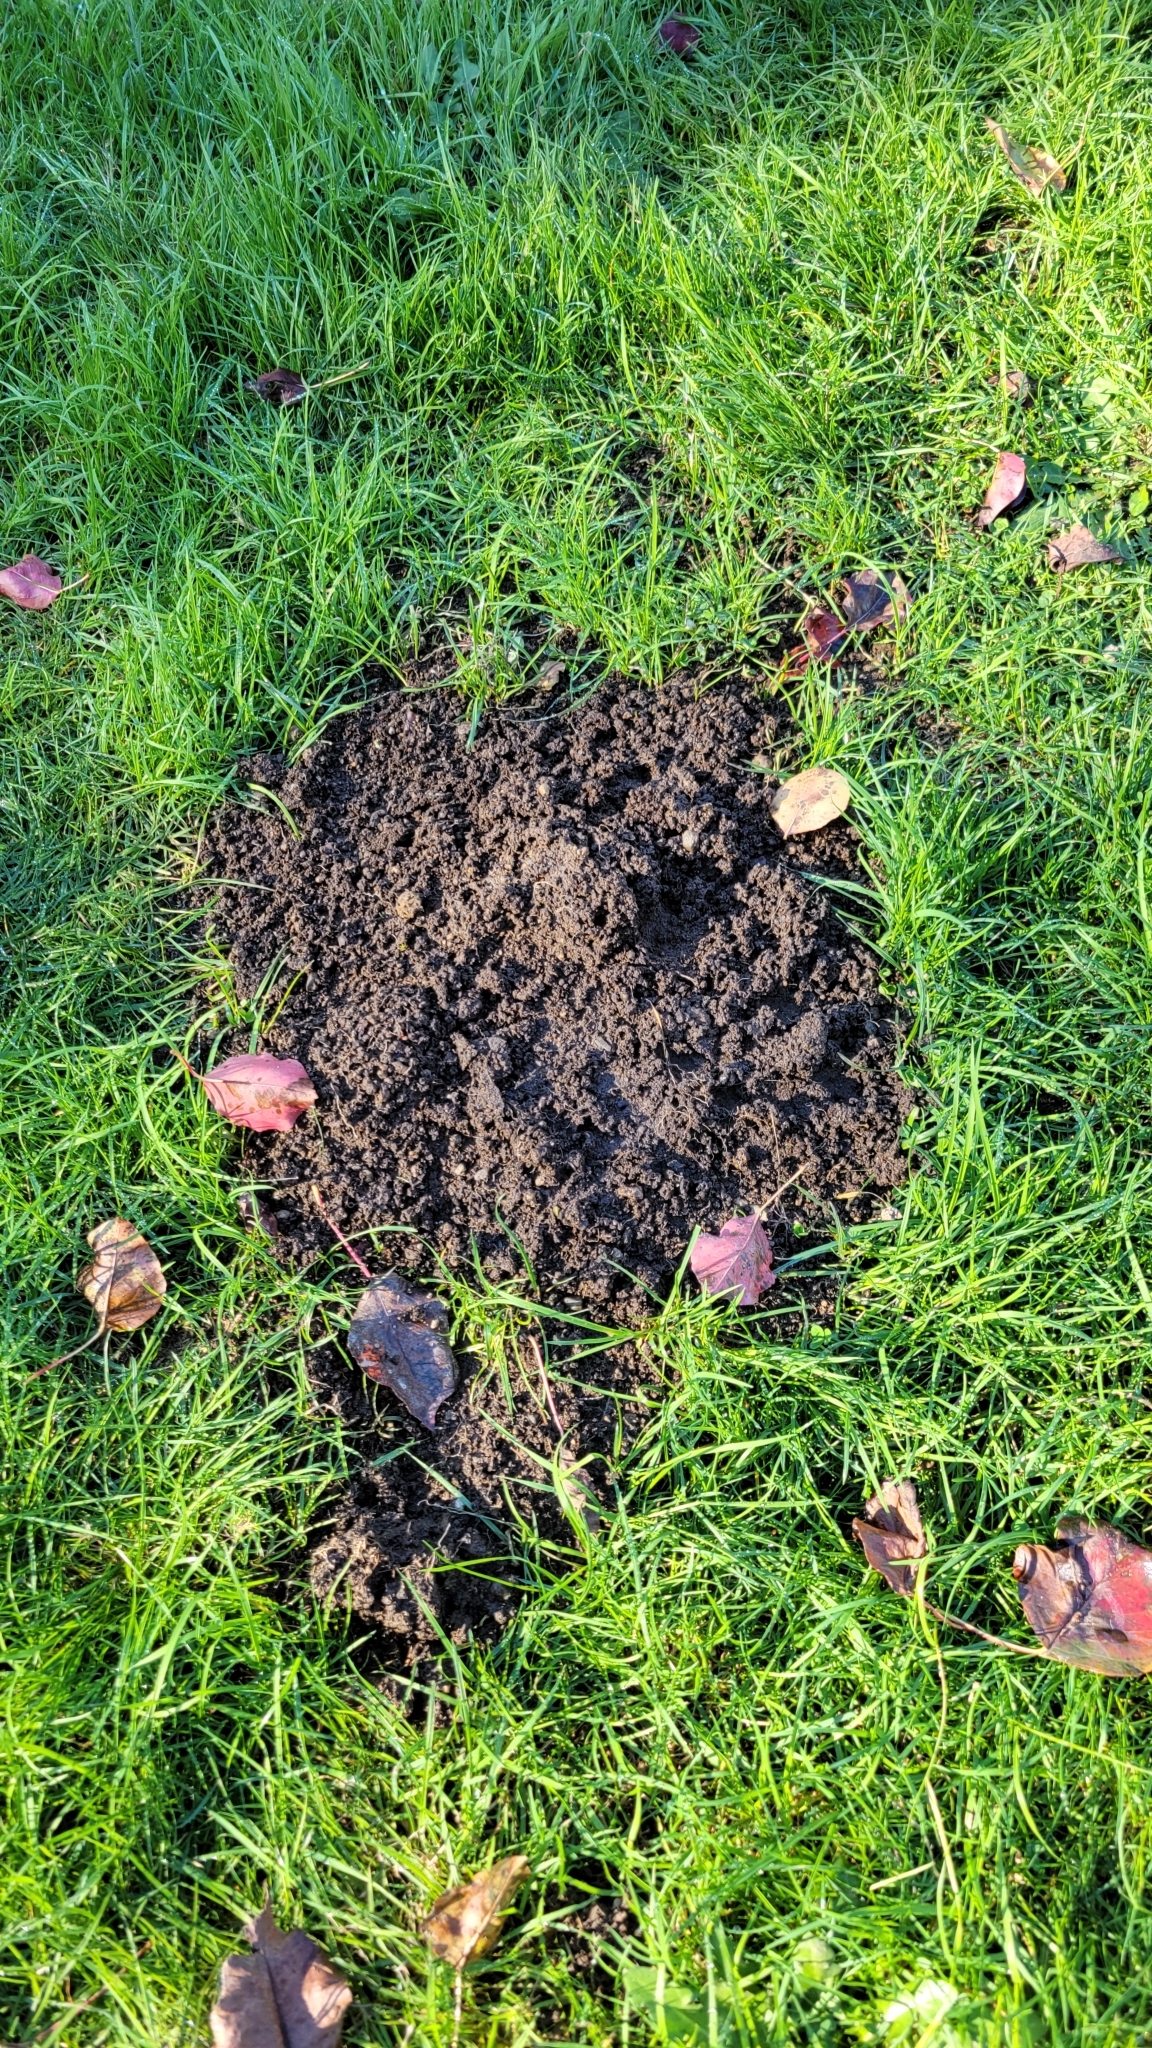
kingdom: Animalia
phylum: Chordata
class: Mammalia
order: Soricomorpha
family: Talpidae
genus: Scapanus
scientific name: Scapanus orarius
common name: Coast mole
